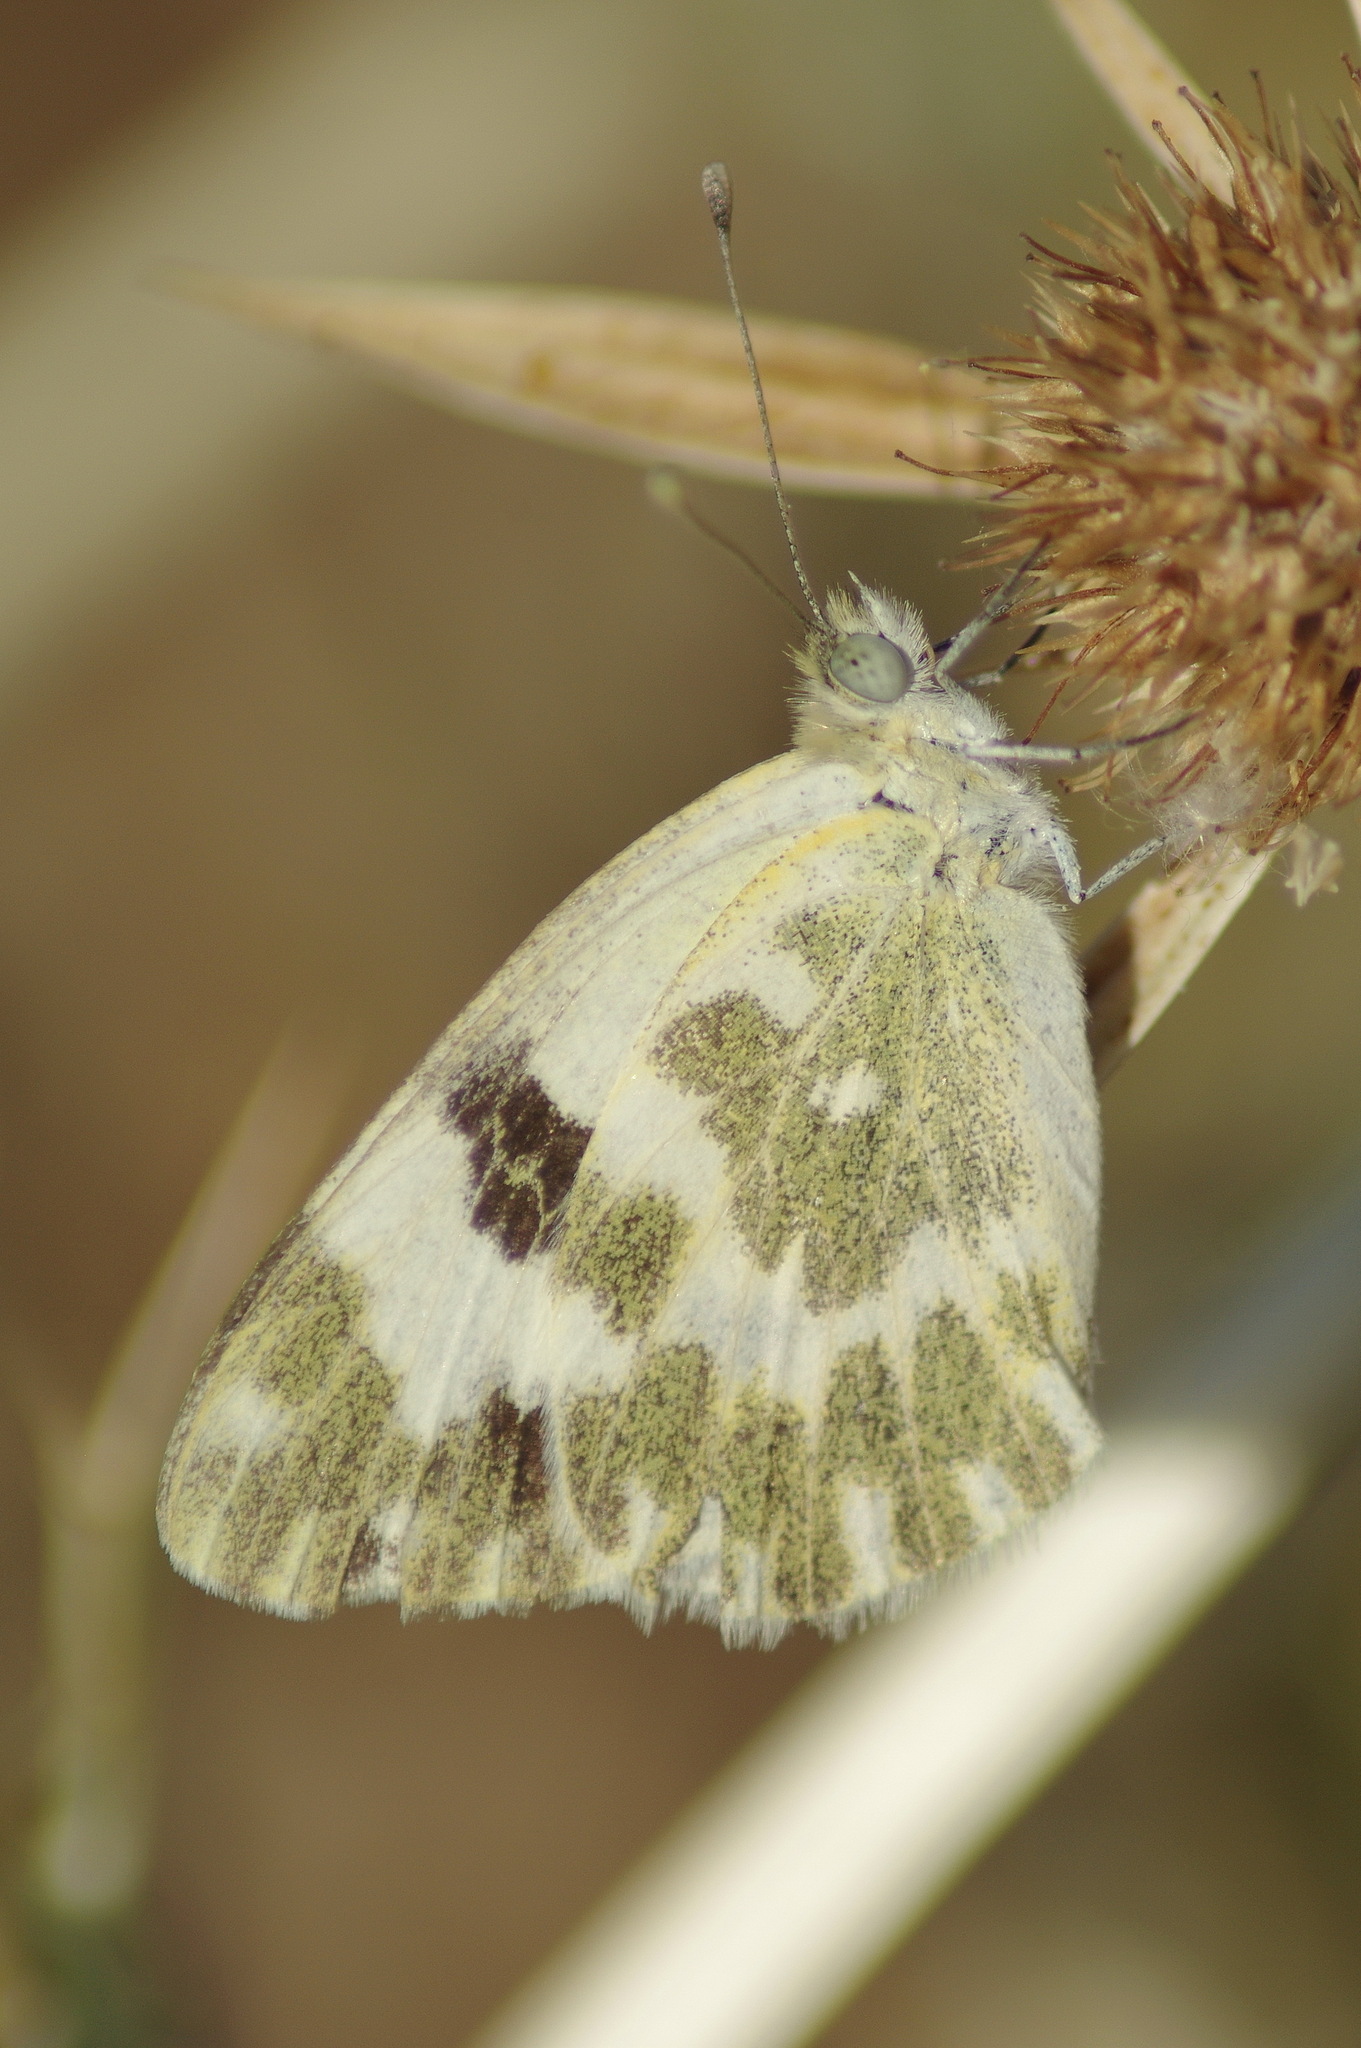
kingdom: Animalia
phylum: Arthropoda
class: Insecta
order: Lepidoptera
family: Pieridae
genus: Pontia
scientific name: Pontia daplidice
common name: Bath white
